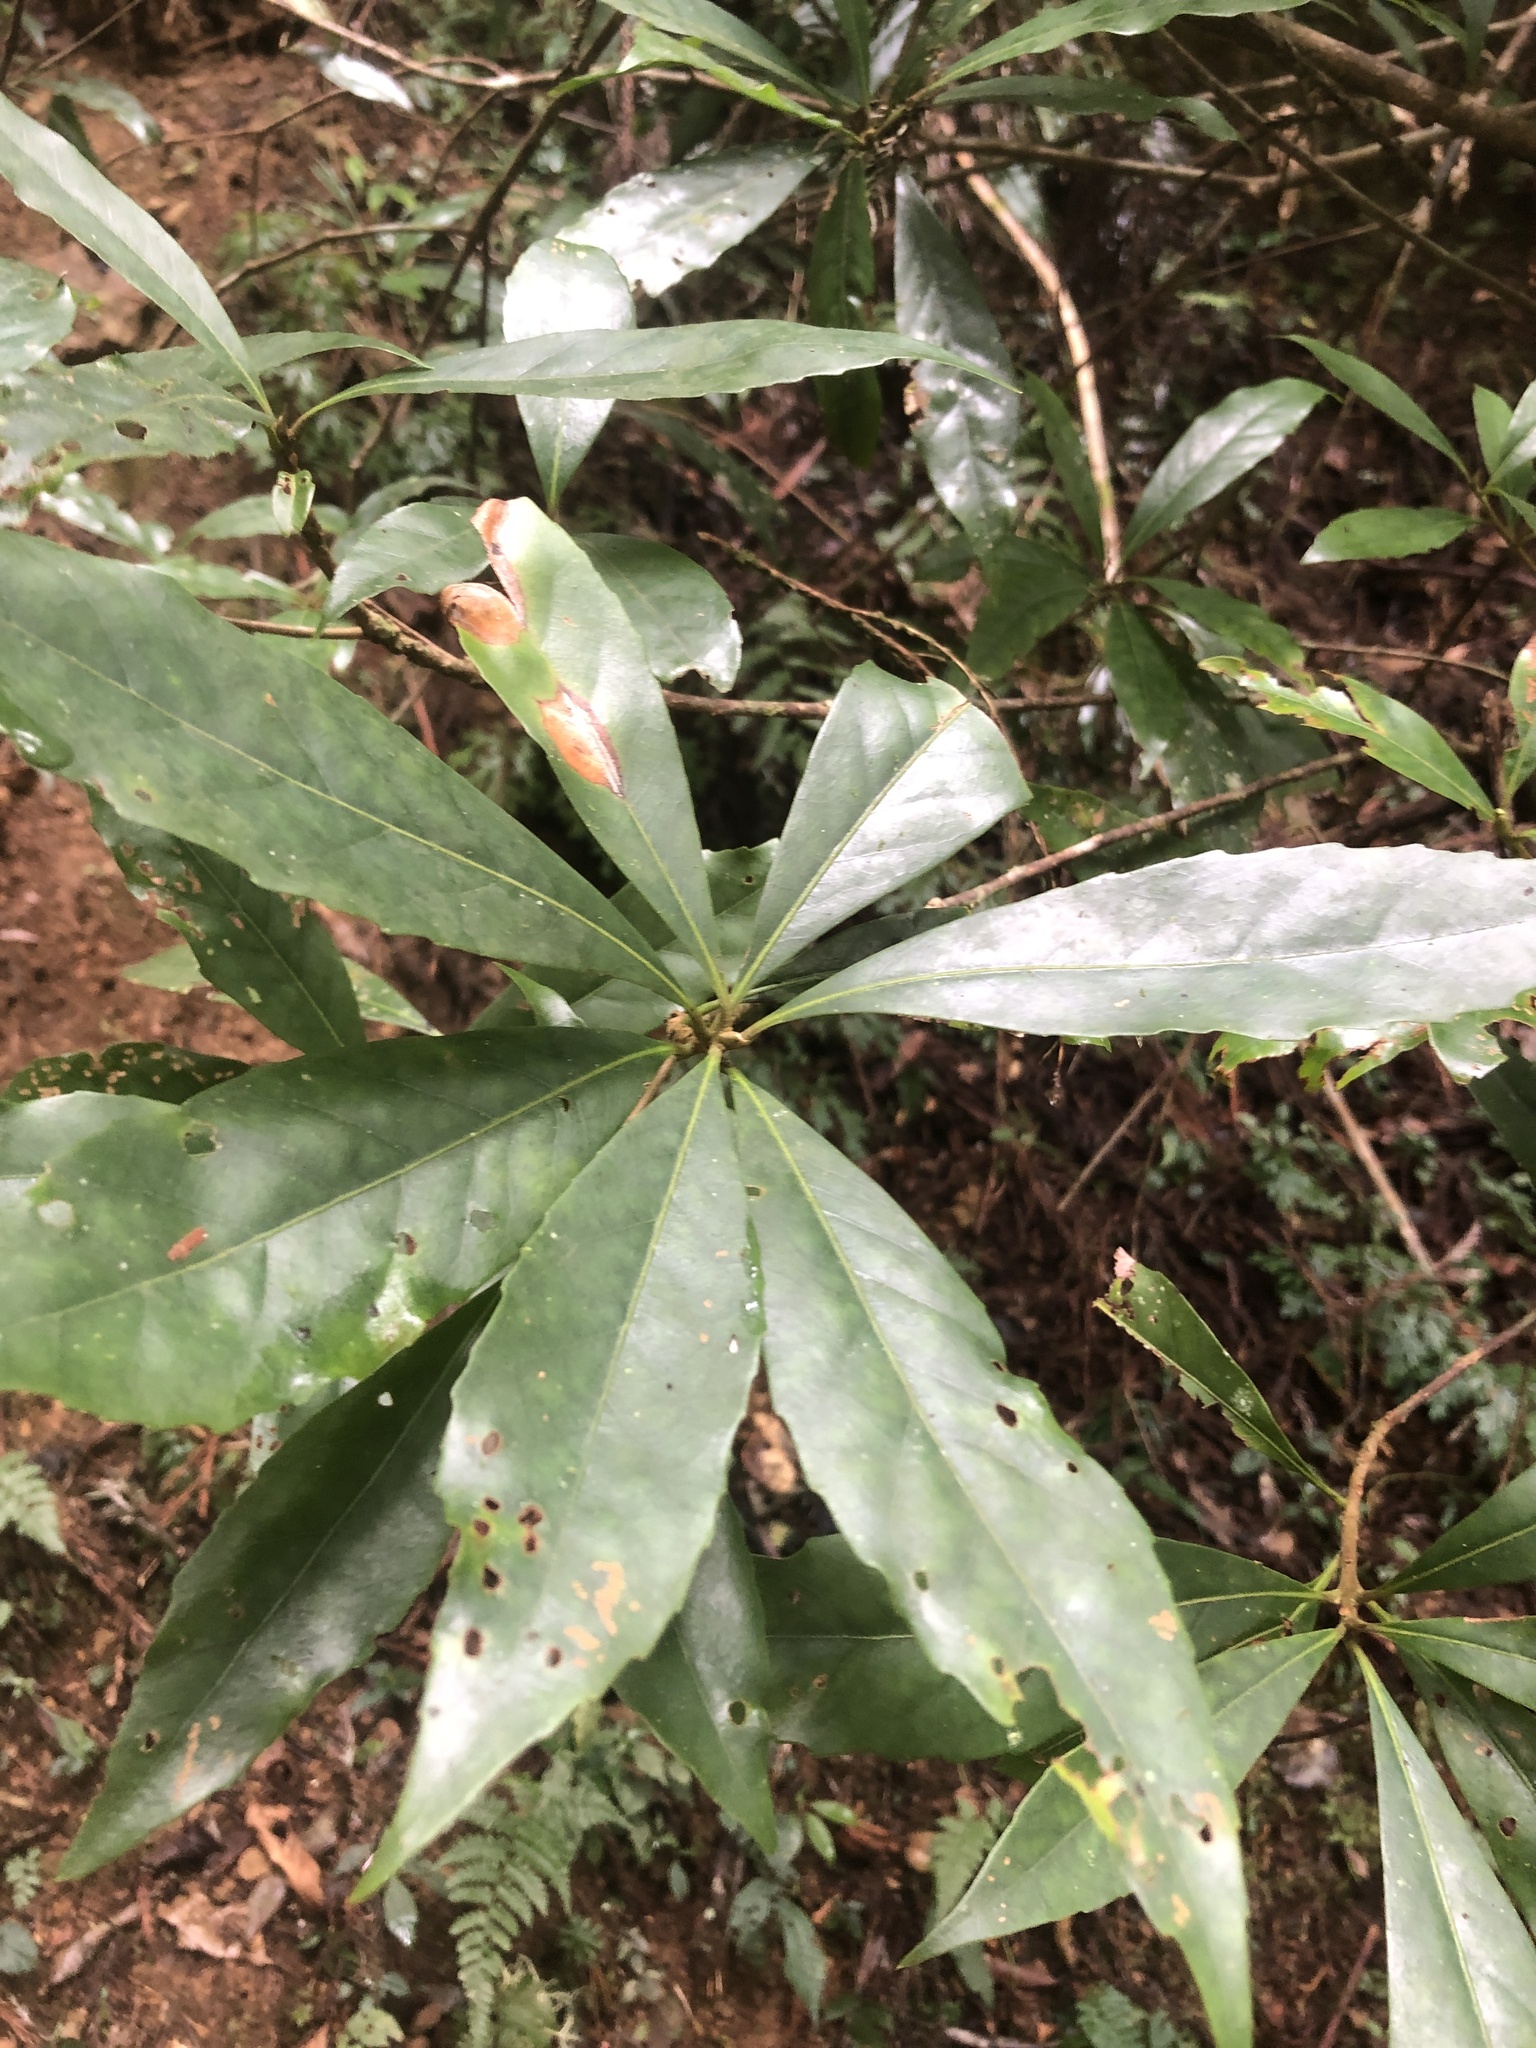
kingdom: Plantae
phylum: Tracheophyta
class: Magnoliopsida
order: Ericales
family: Theaceae
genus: Schima
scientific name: Schima superba
